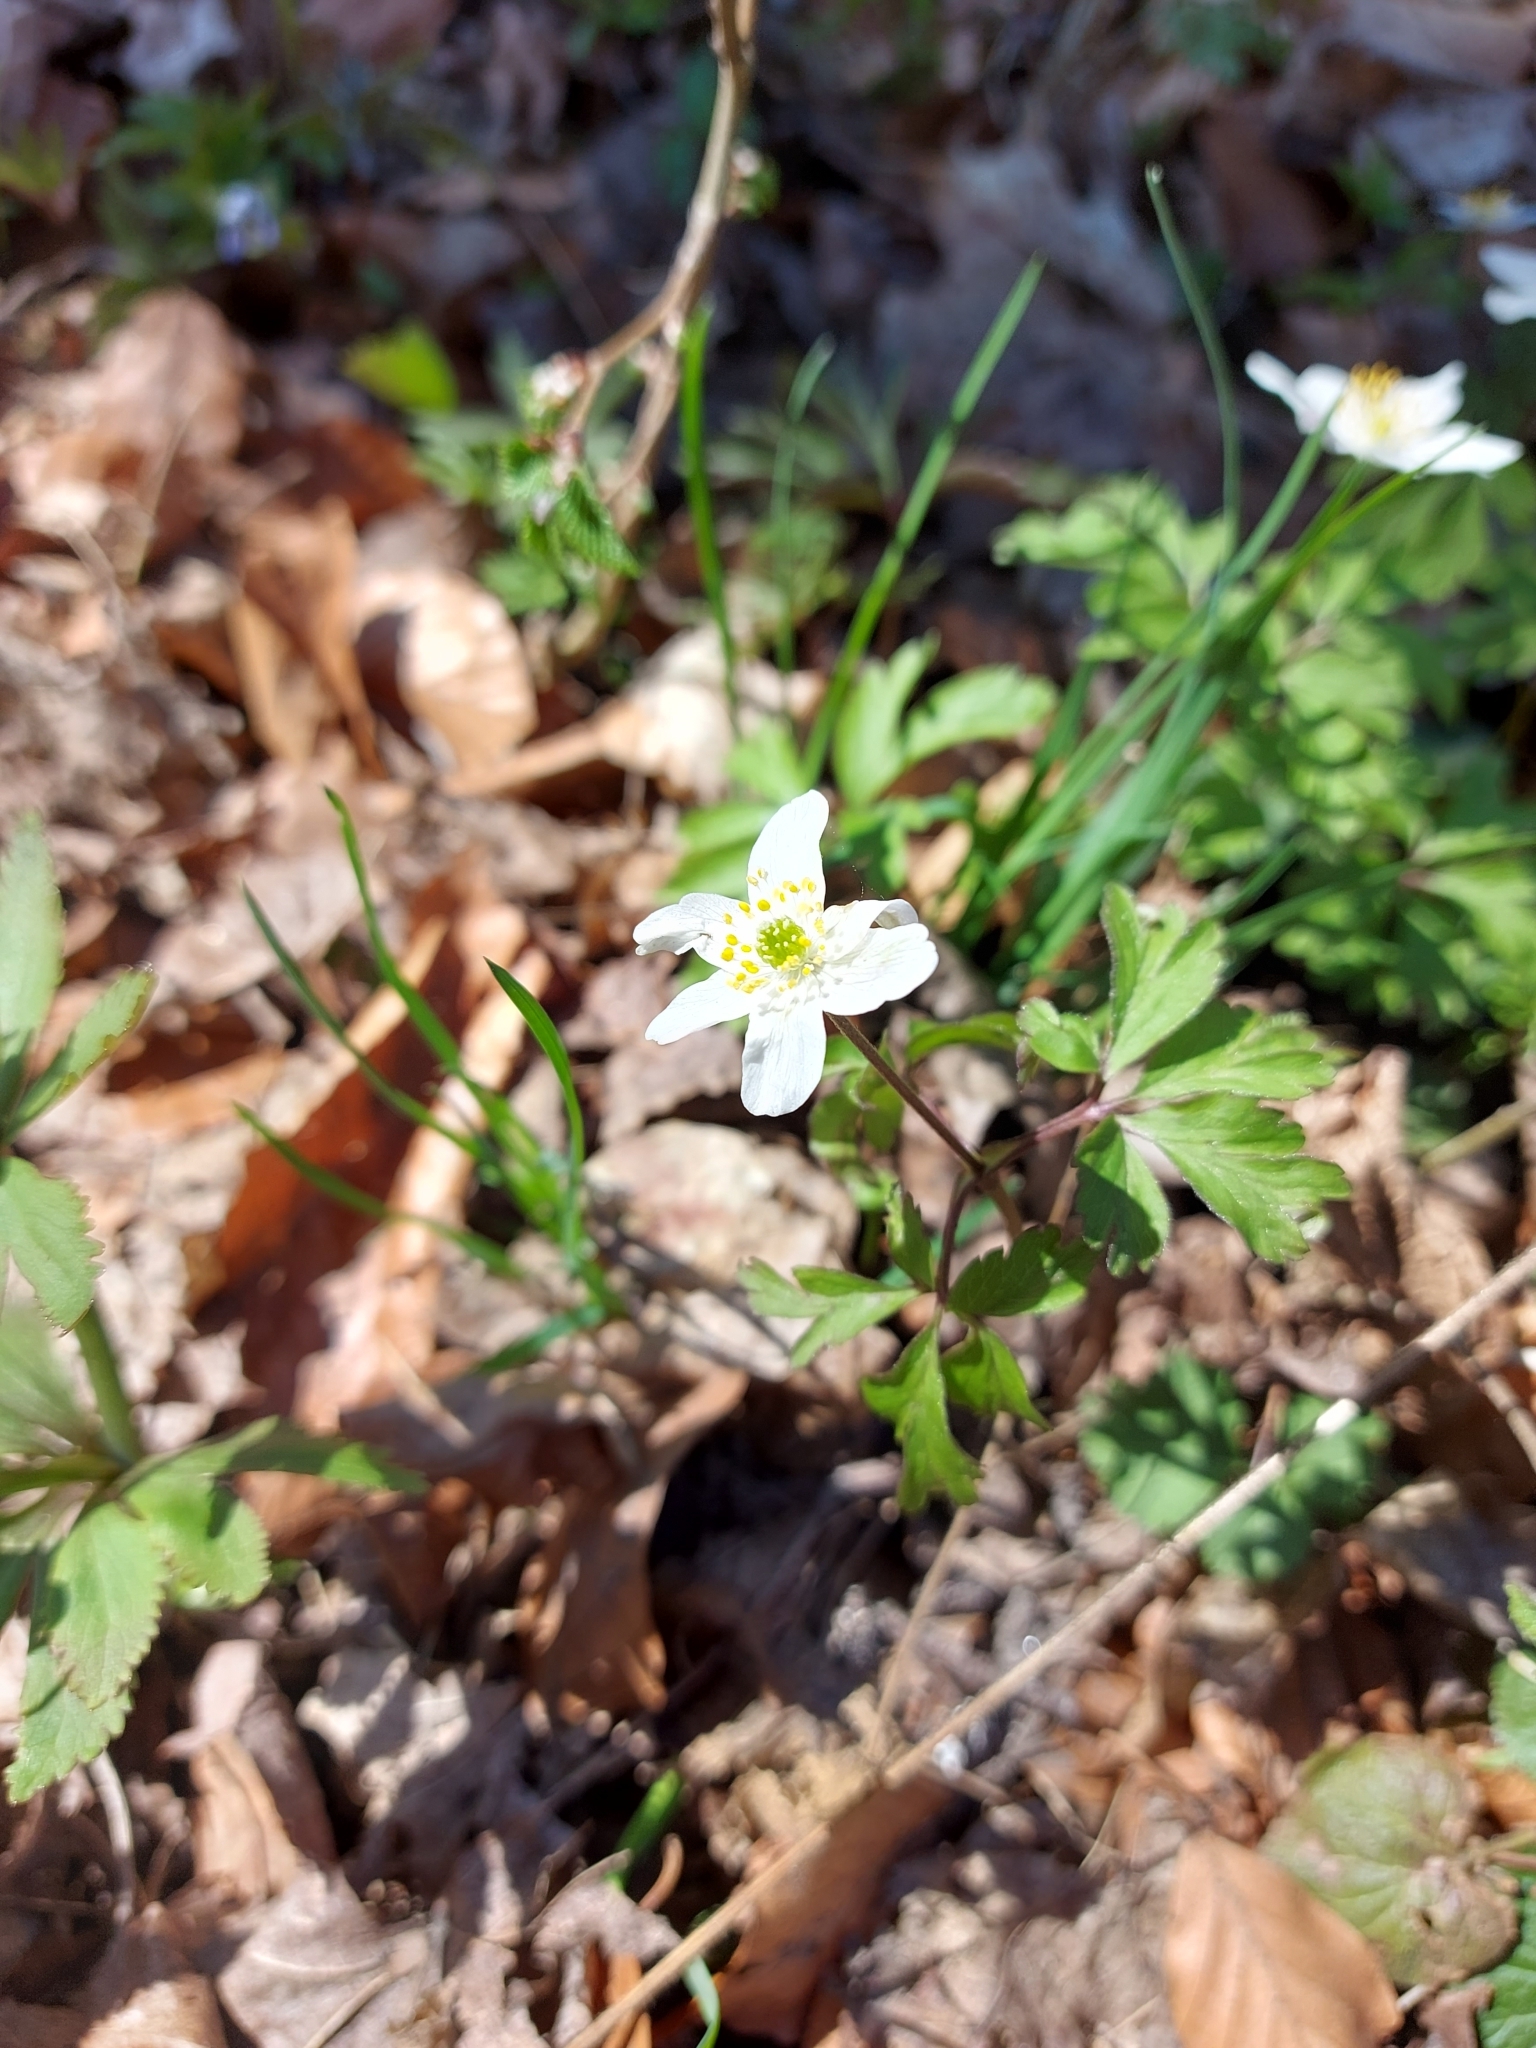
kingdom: Plantae
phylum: Tracheophyta
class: Magnoliopsida
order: Ranunculales
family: Ranunculaceae
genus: Anemone
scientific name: Anemone nemorosa
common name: Wood anemone
